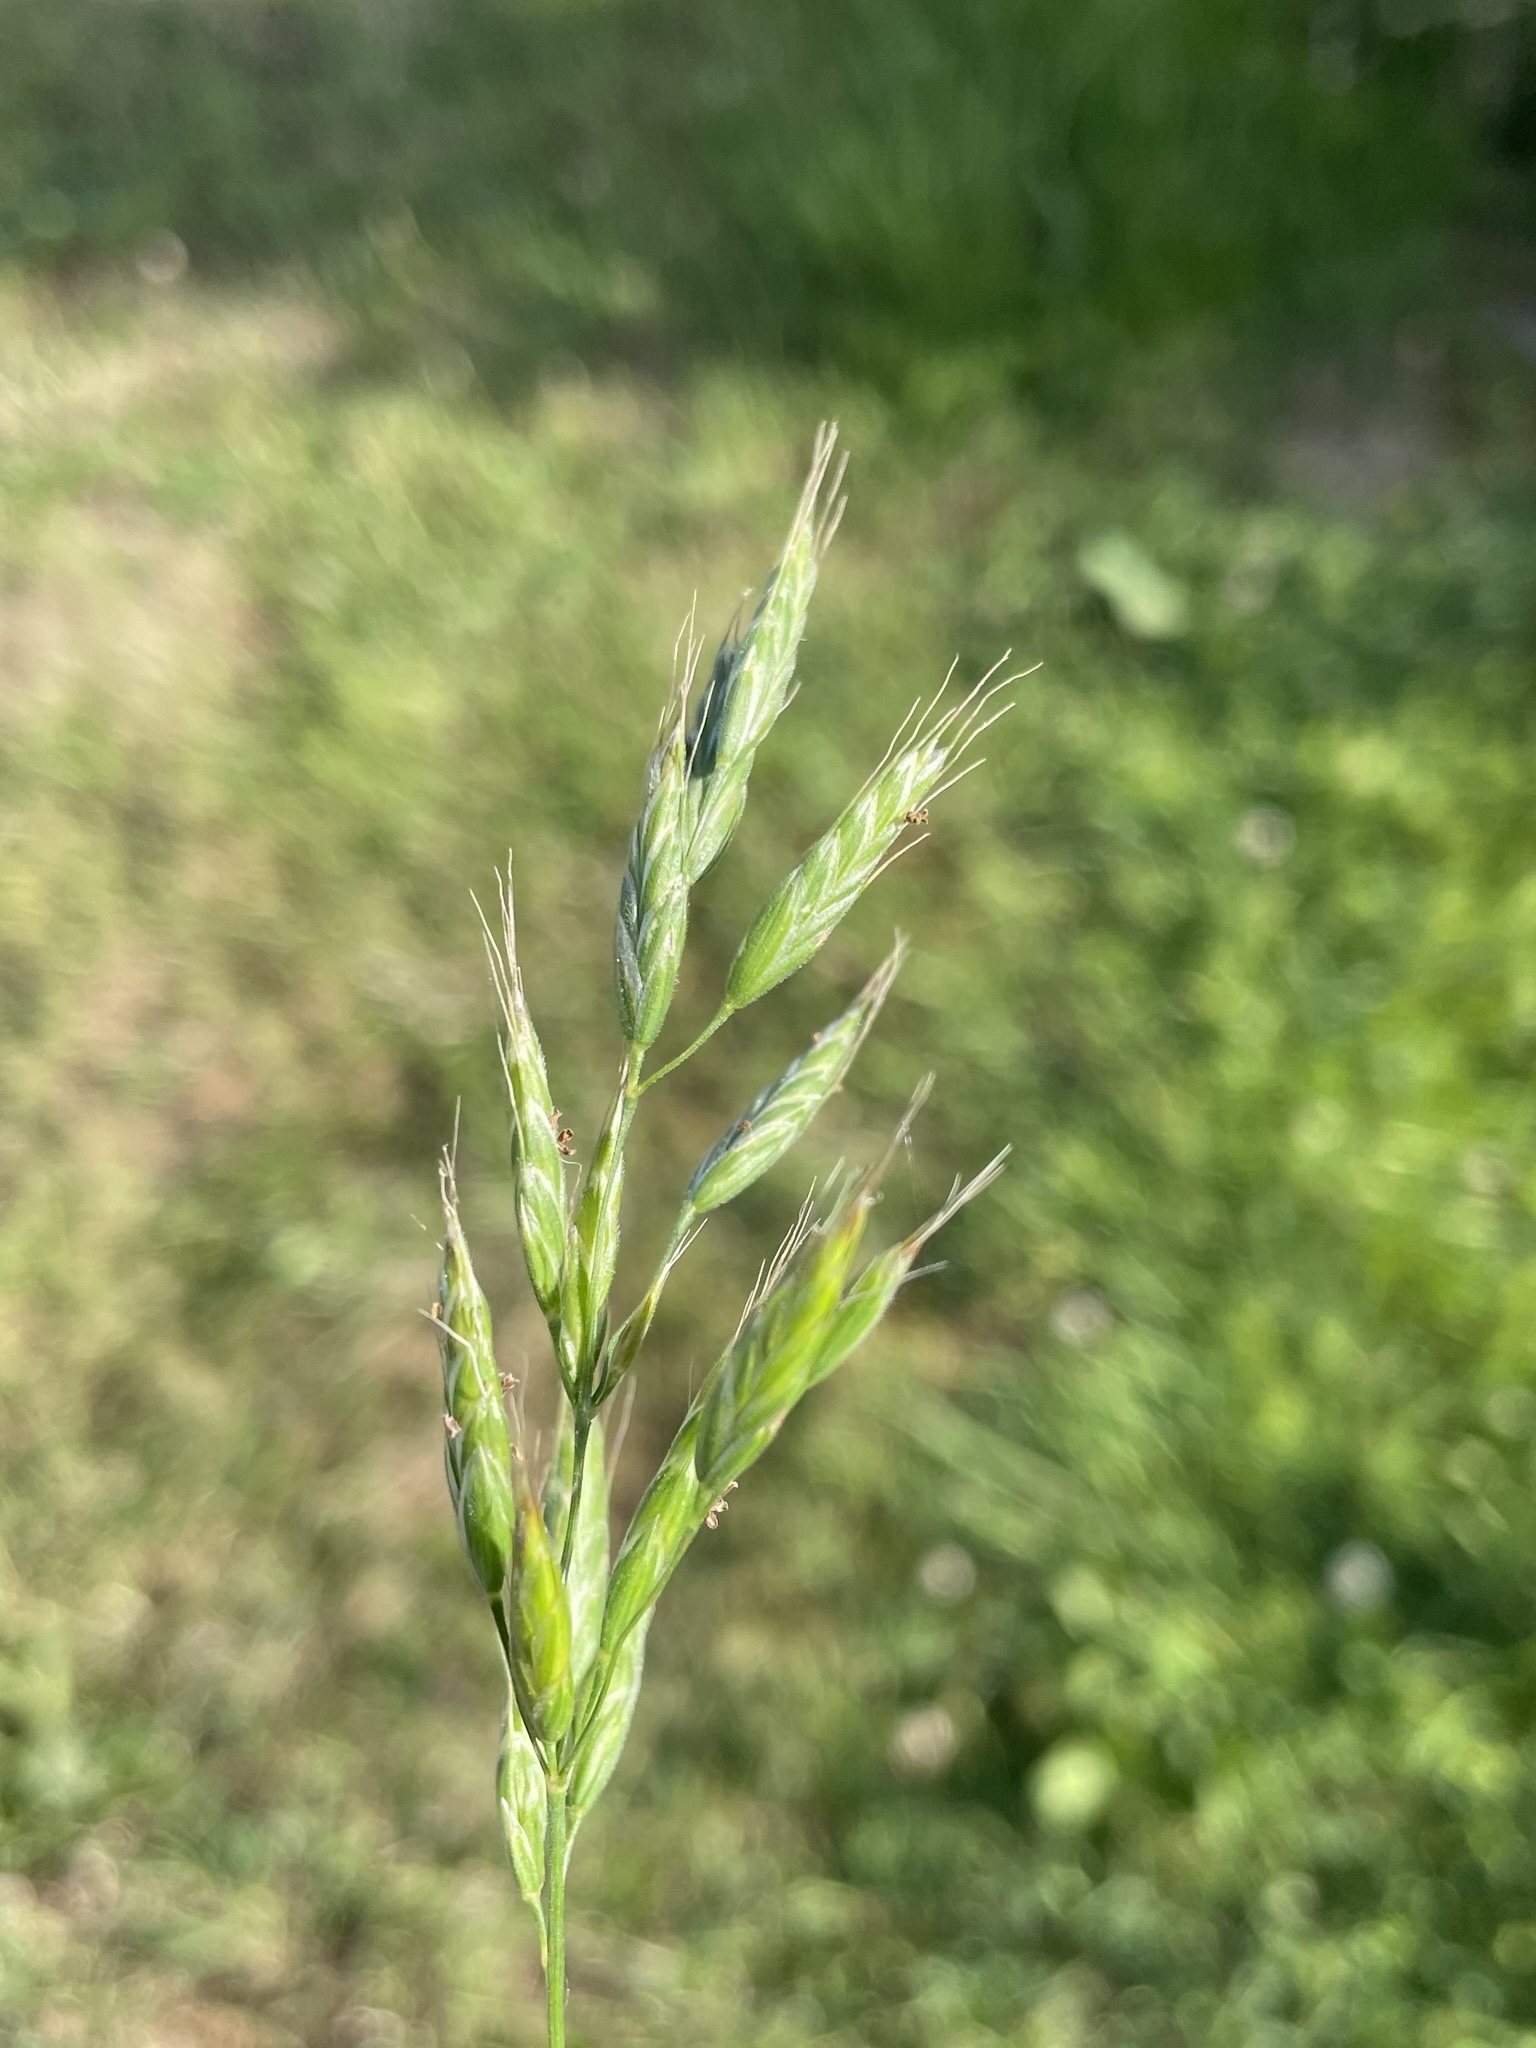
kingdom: Plantae
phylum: Tracheophyta
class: Liliopsida
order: Poales
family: Poaceae
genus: Bromus
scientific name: Bromus hordeaceus
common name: Soft brome
